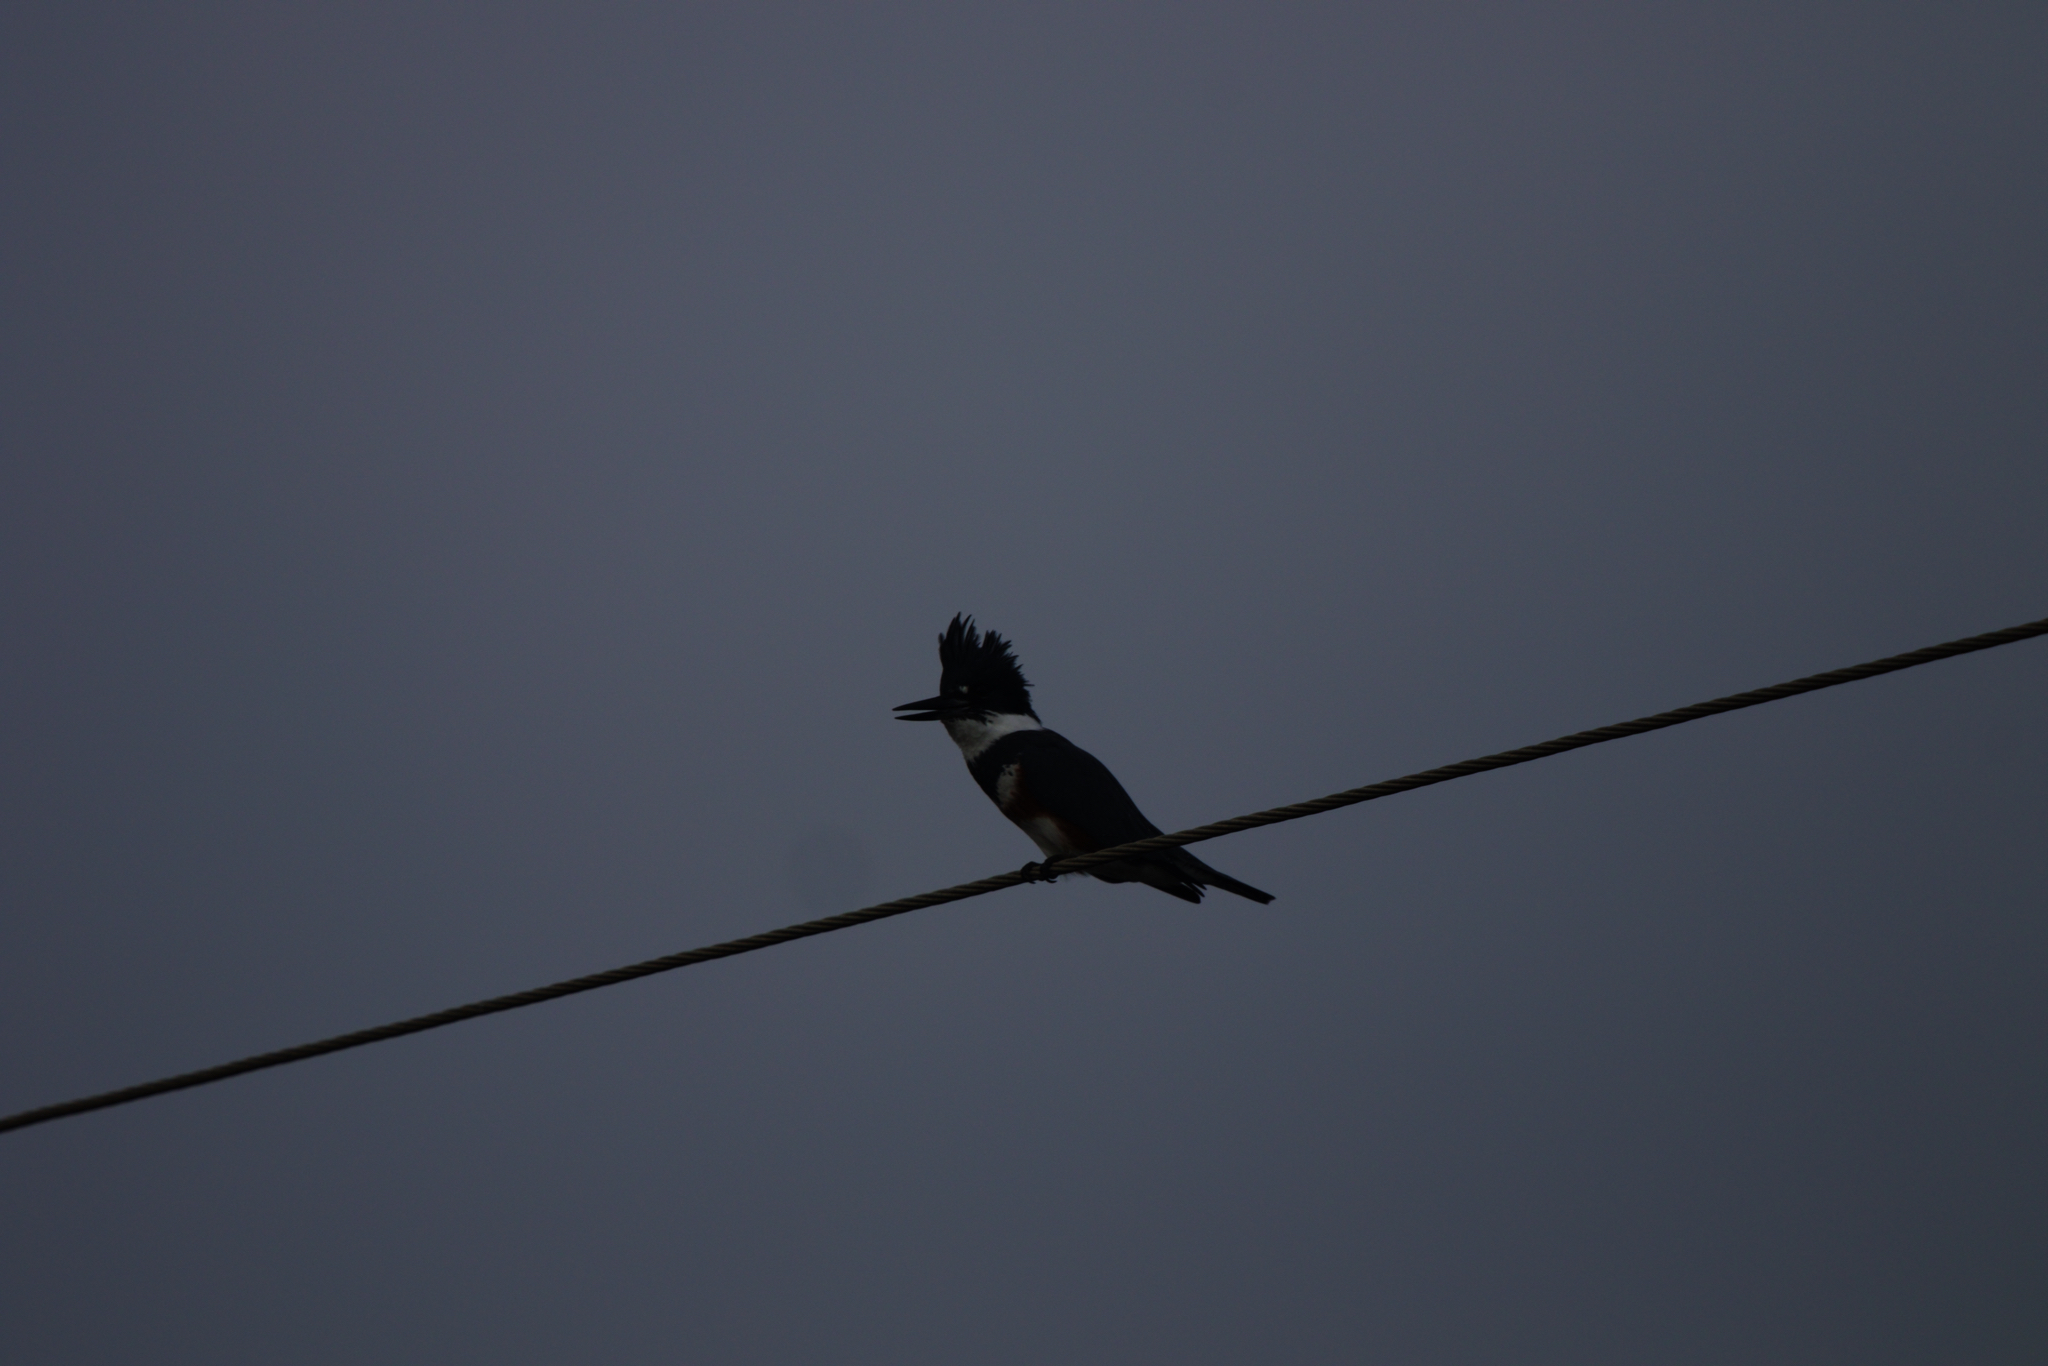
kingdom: Animalia
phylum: Chordata
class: Aves
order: Coraciiformes
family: Alcedinidae
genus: Megaceryle
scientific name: Megaceryle alcyon
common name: Belted kingfisher
